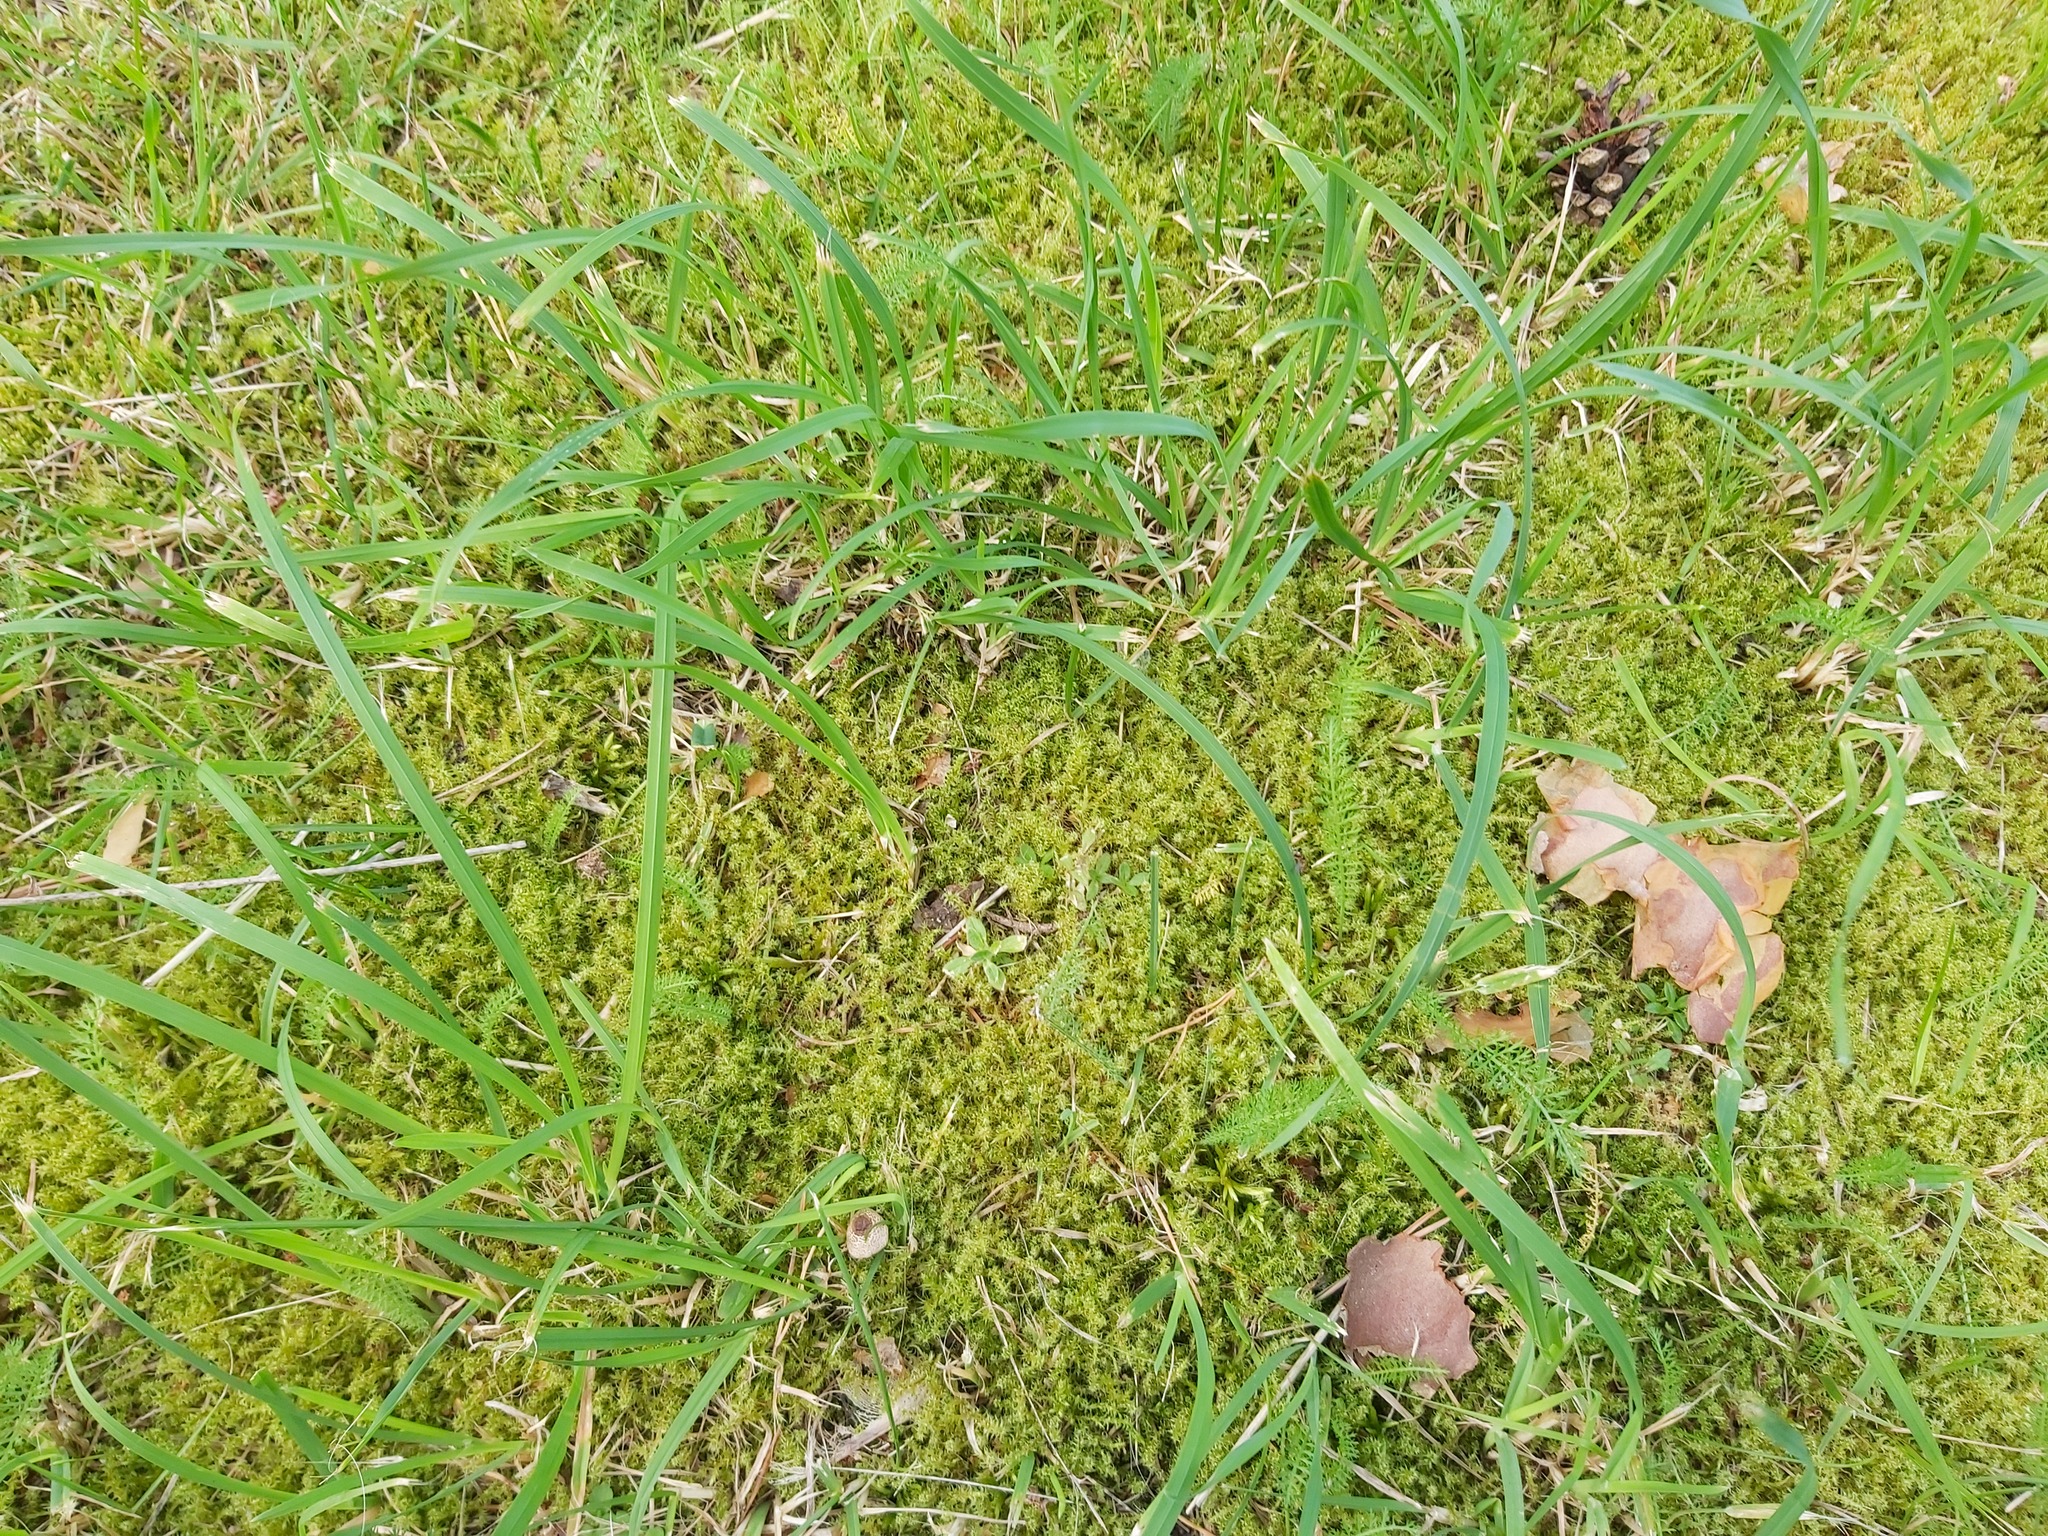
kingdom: Plantae
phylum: Bryophyta
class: Bryopsida
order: Hypnales
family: Hylocomiaceae
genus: Rhytidiadelphus
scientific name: Rhytidiadelphus squarrosus
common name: Springy turf-moss
